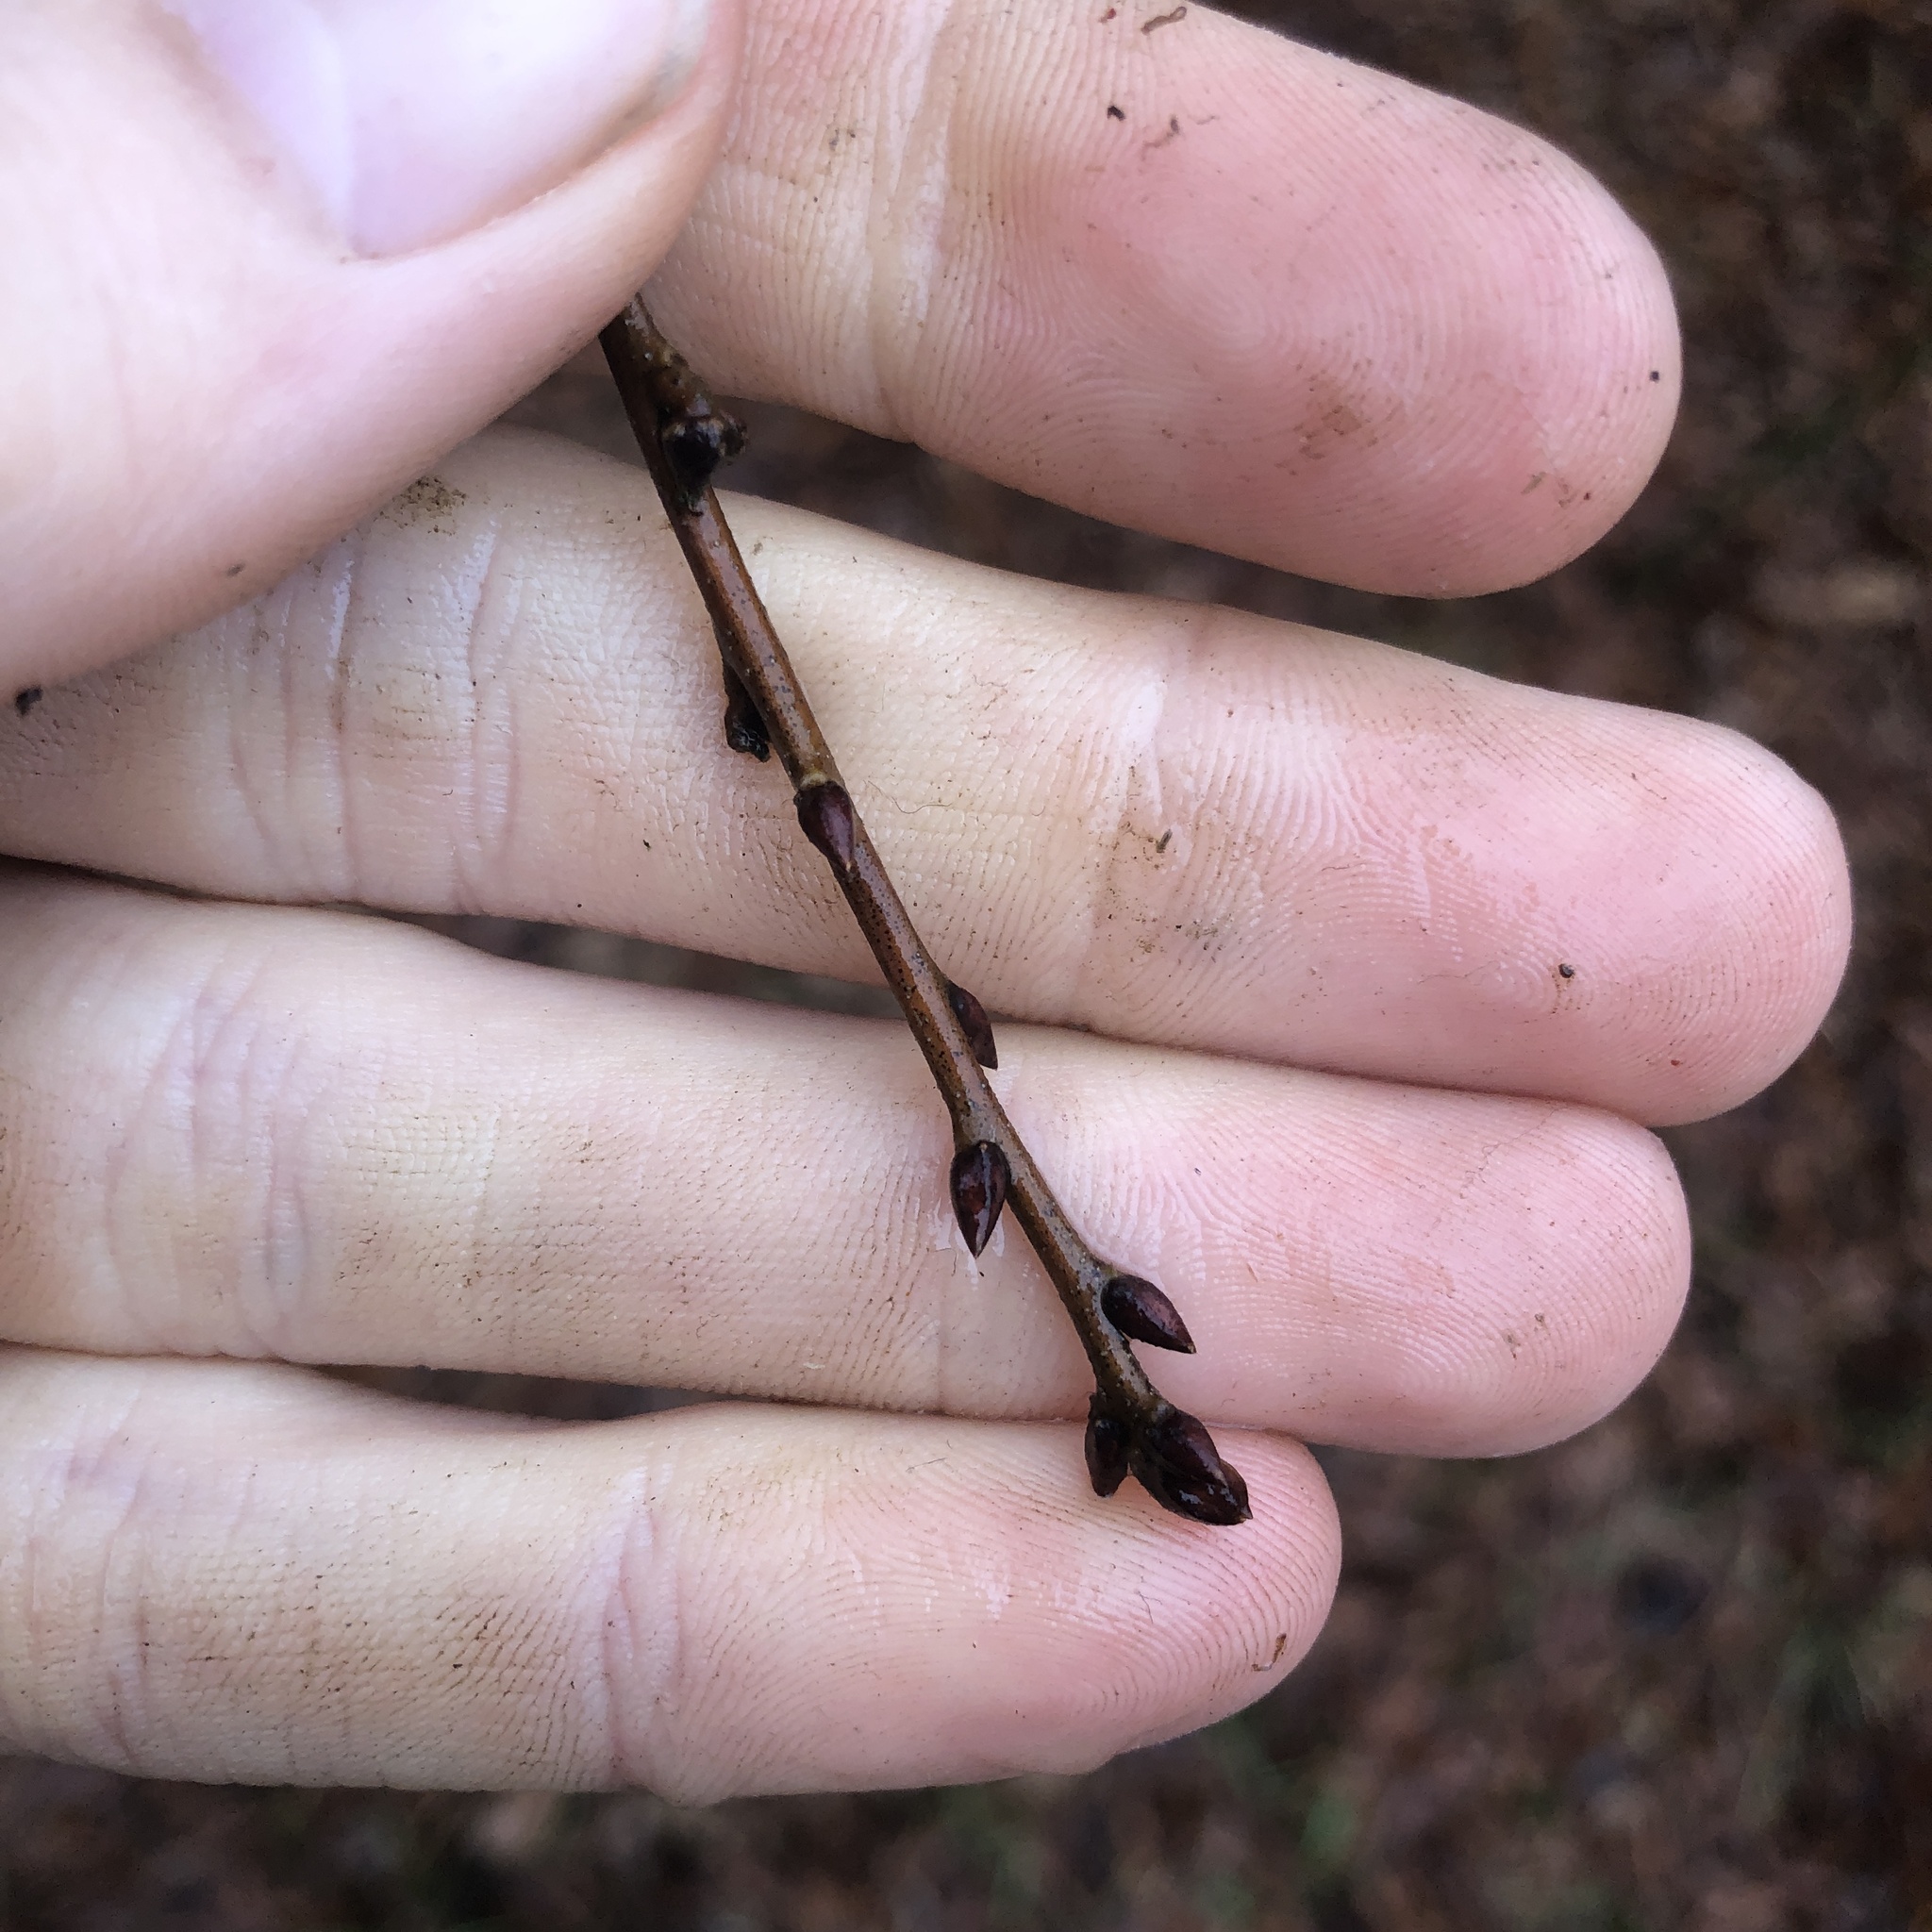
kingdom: Plantae
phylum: Tracheophyta
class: Magnoliopsida
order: Fagales
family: Fagaceae
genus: Quercus
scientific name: Quercus phellos
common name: Willow oak
